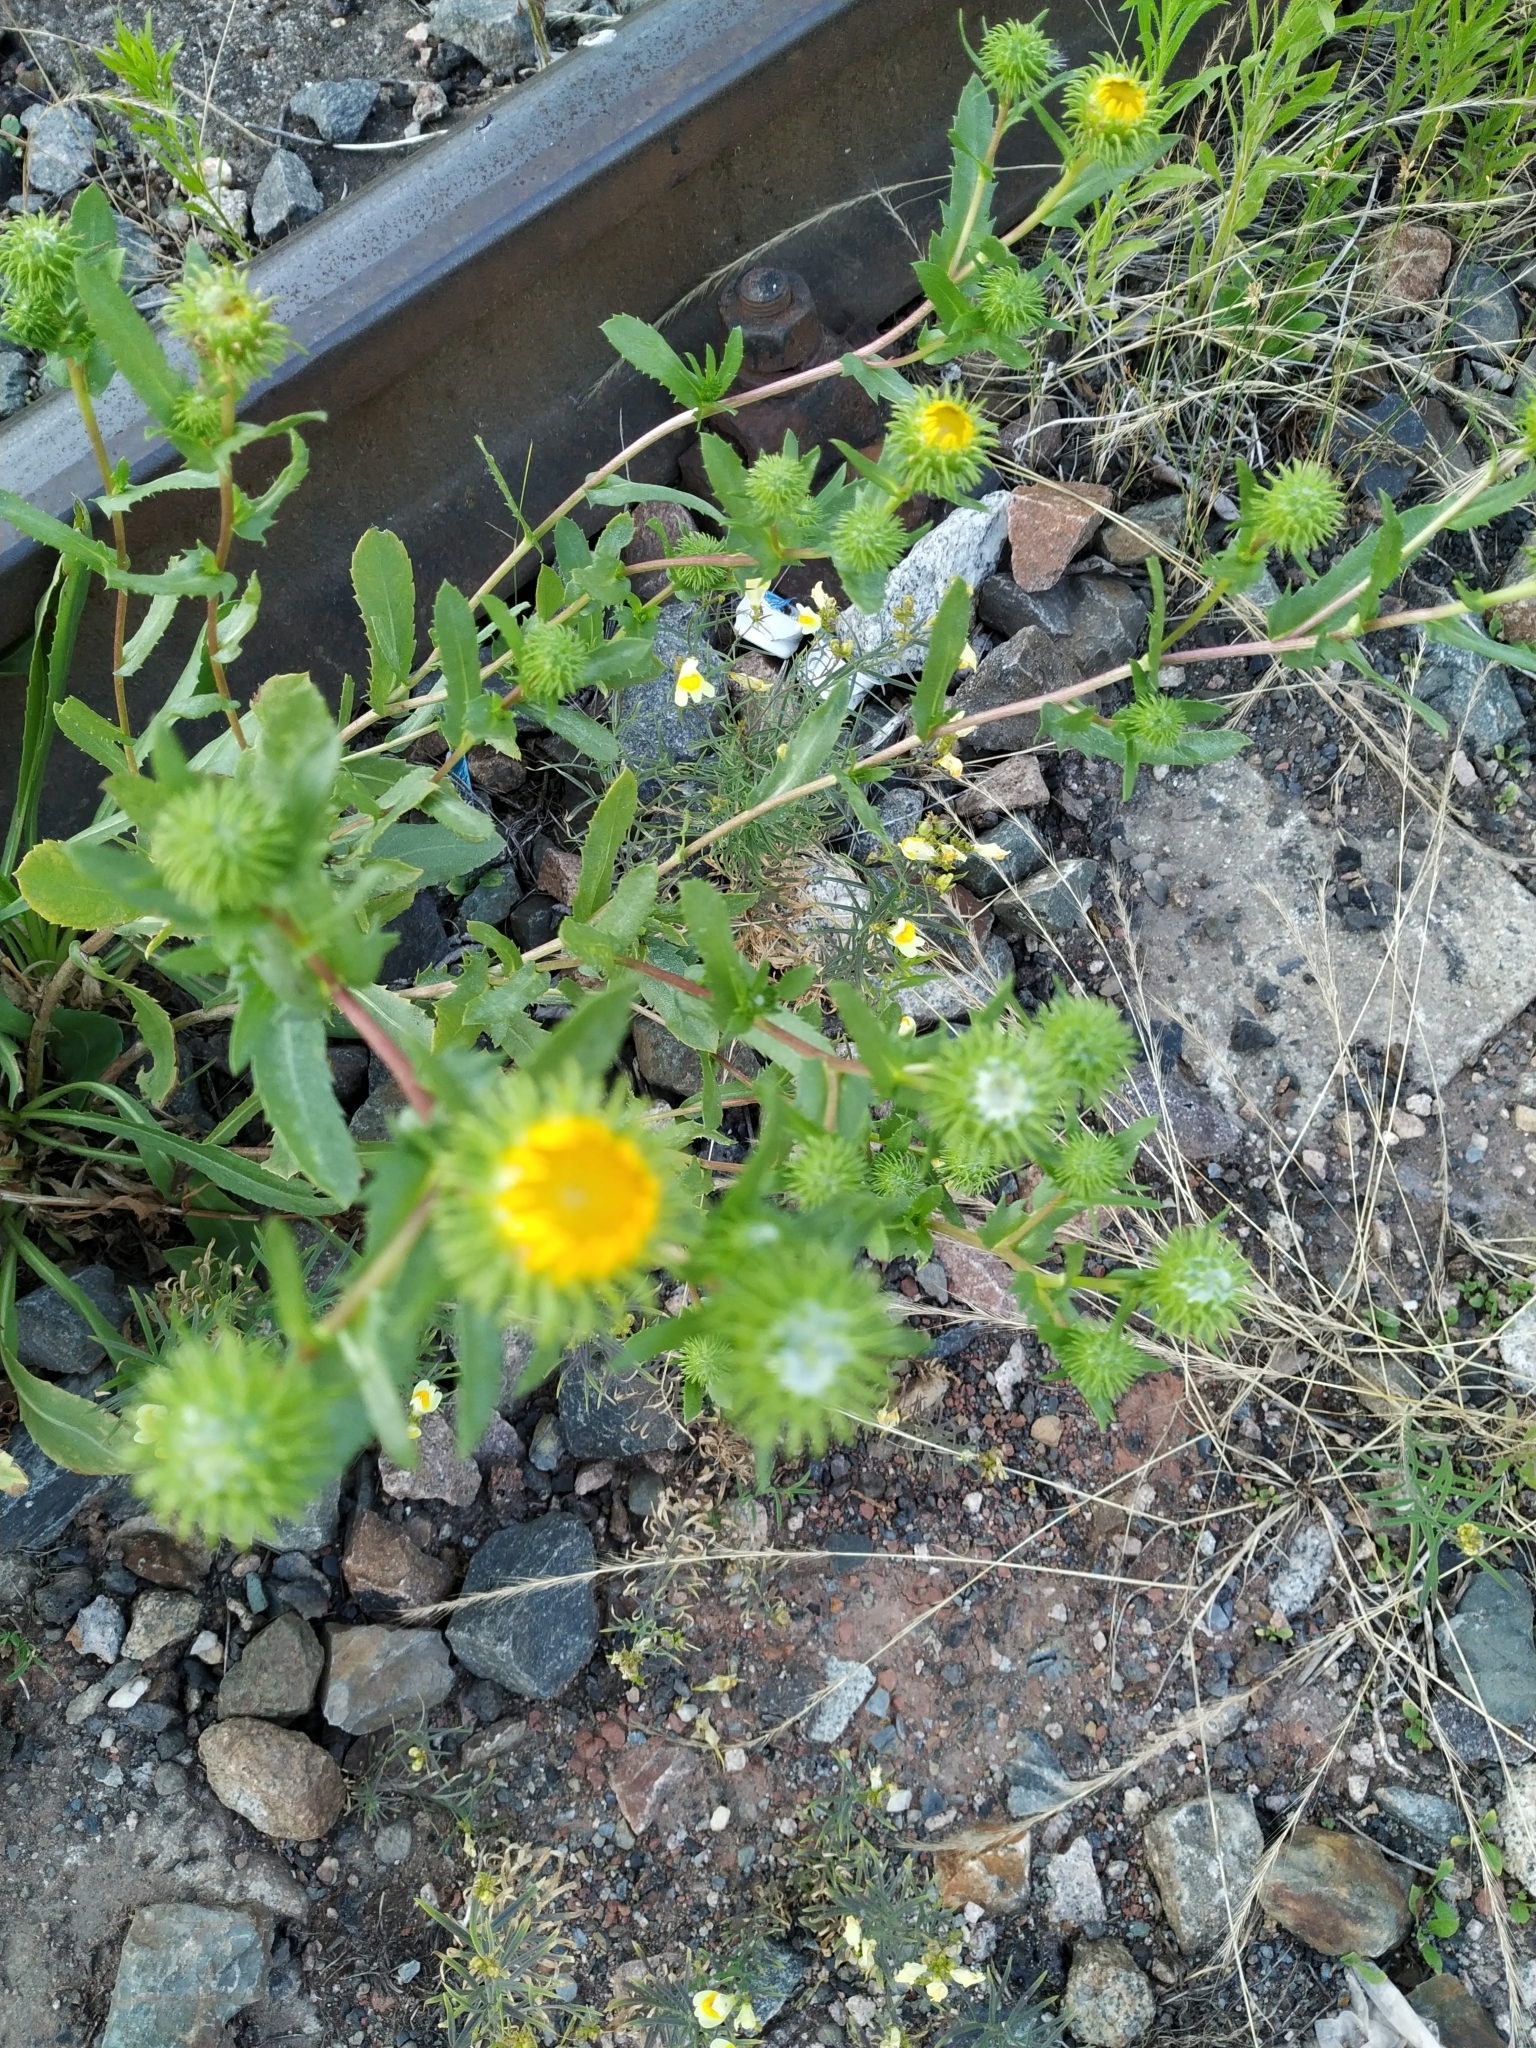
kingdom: Plantae
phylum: Tracheophyta
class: Magnoliopsida
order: Asterales
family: Asteraceae
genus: Grindelia
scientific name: Grindelia squarrosa
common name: Curly-cup gumweed
